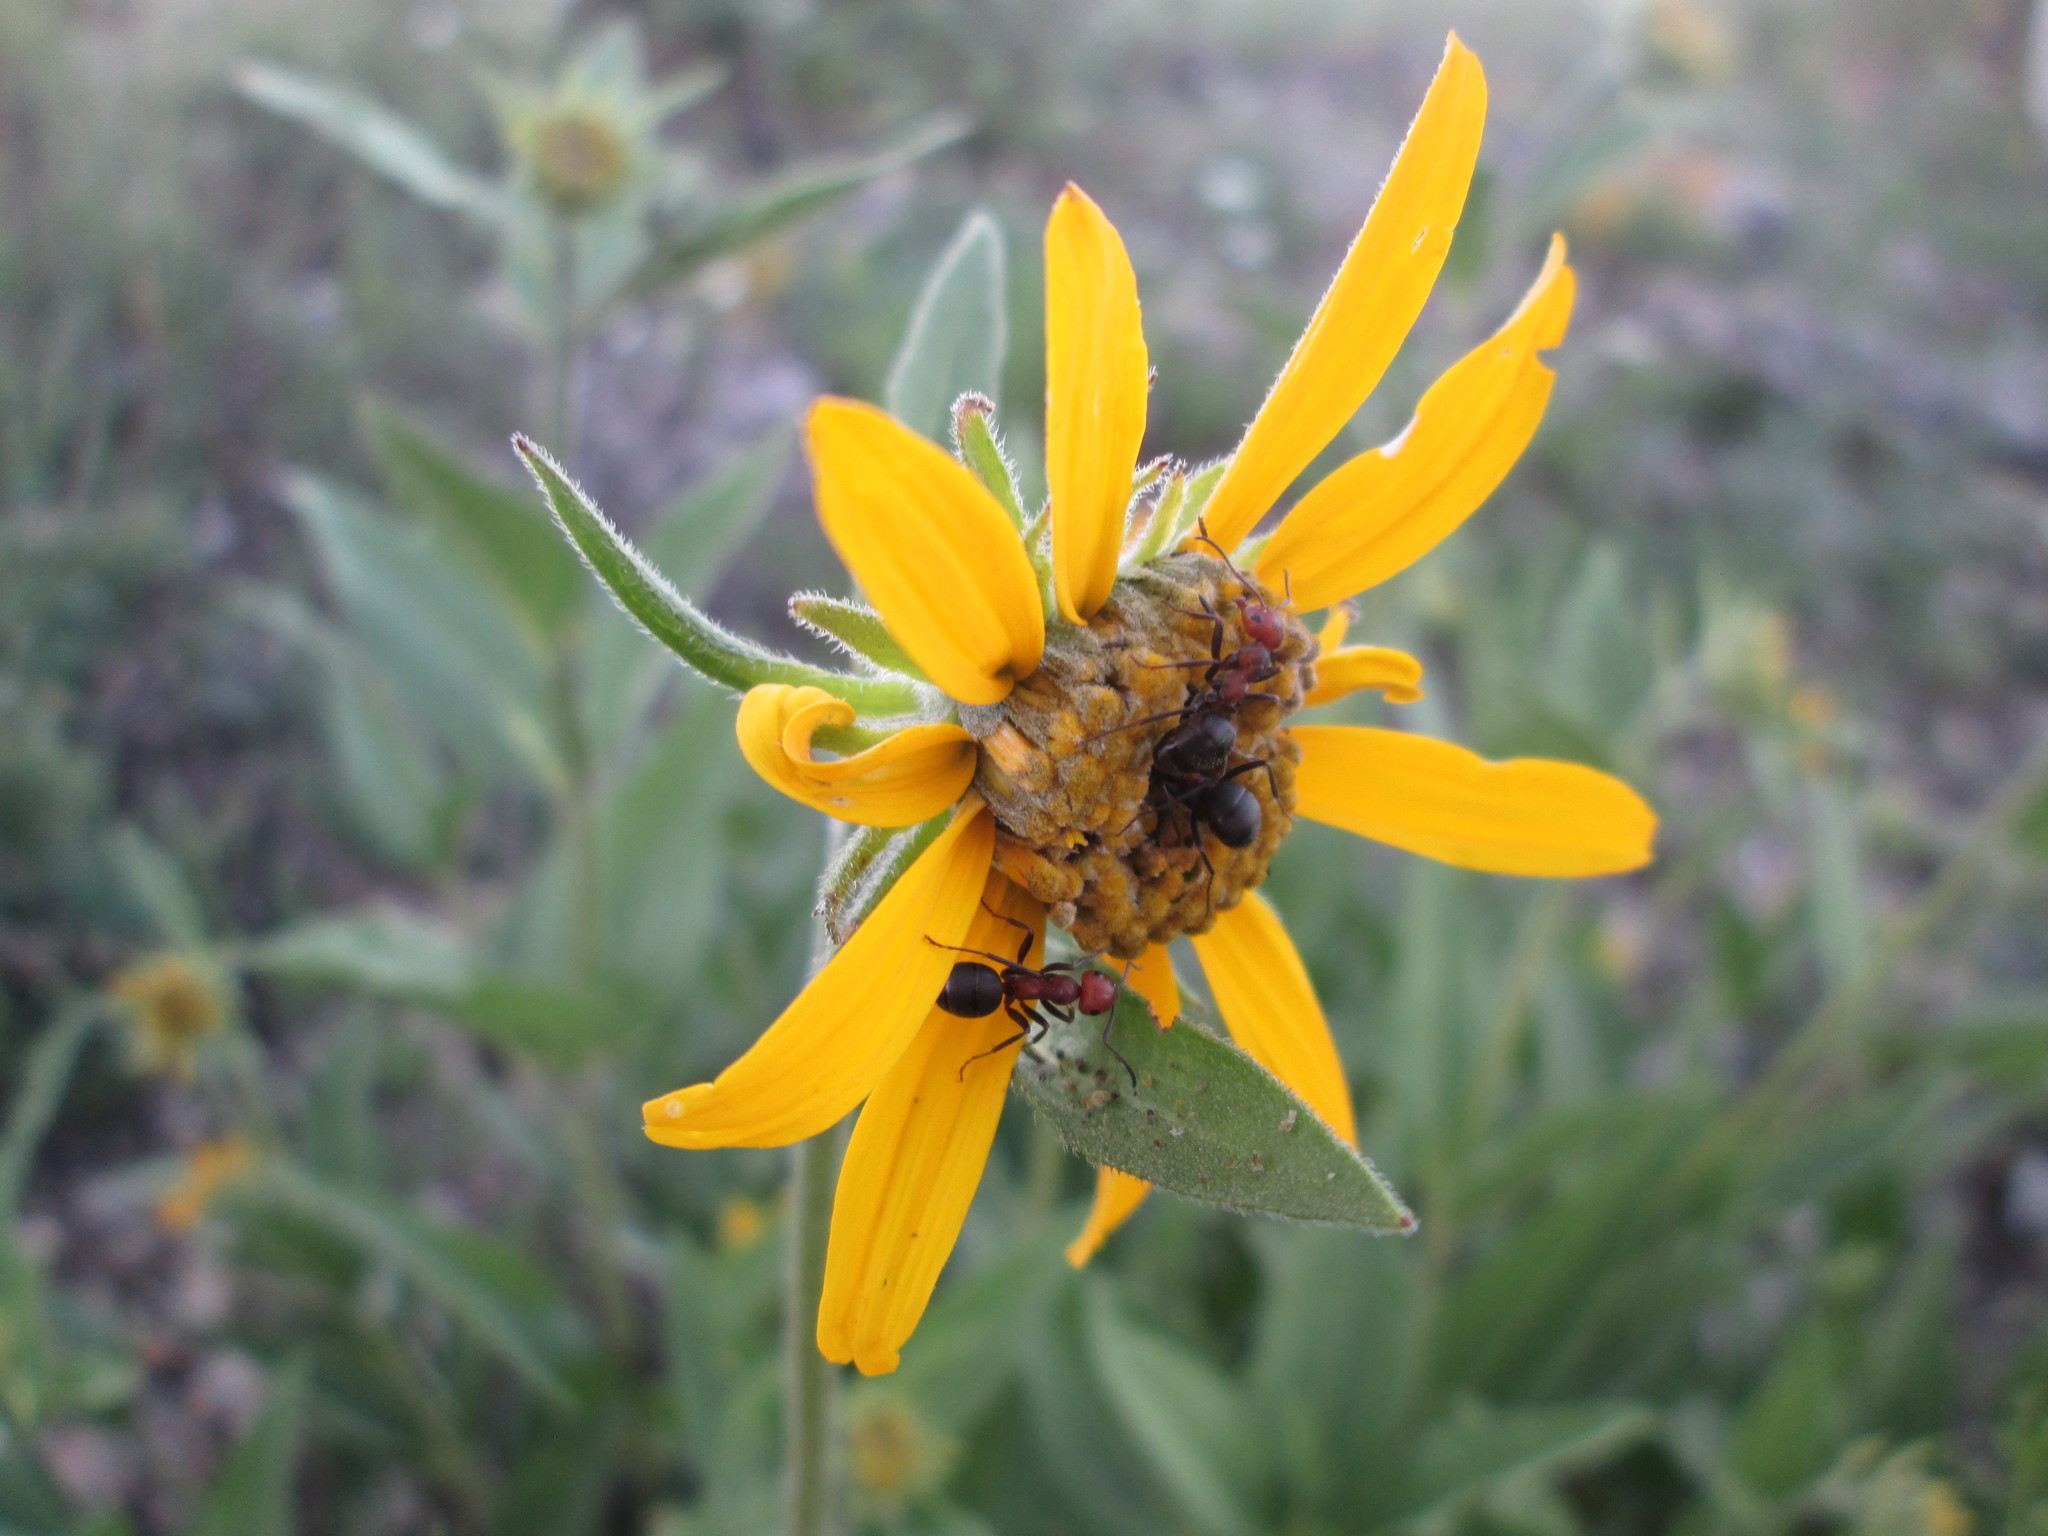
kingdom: Plantae
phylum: Tracheophyta
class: Magnoliopsida
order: Asterales
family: Asteraceae
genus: Wyethia
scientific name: Wyethia sagittata
